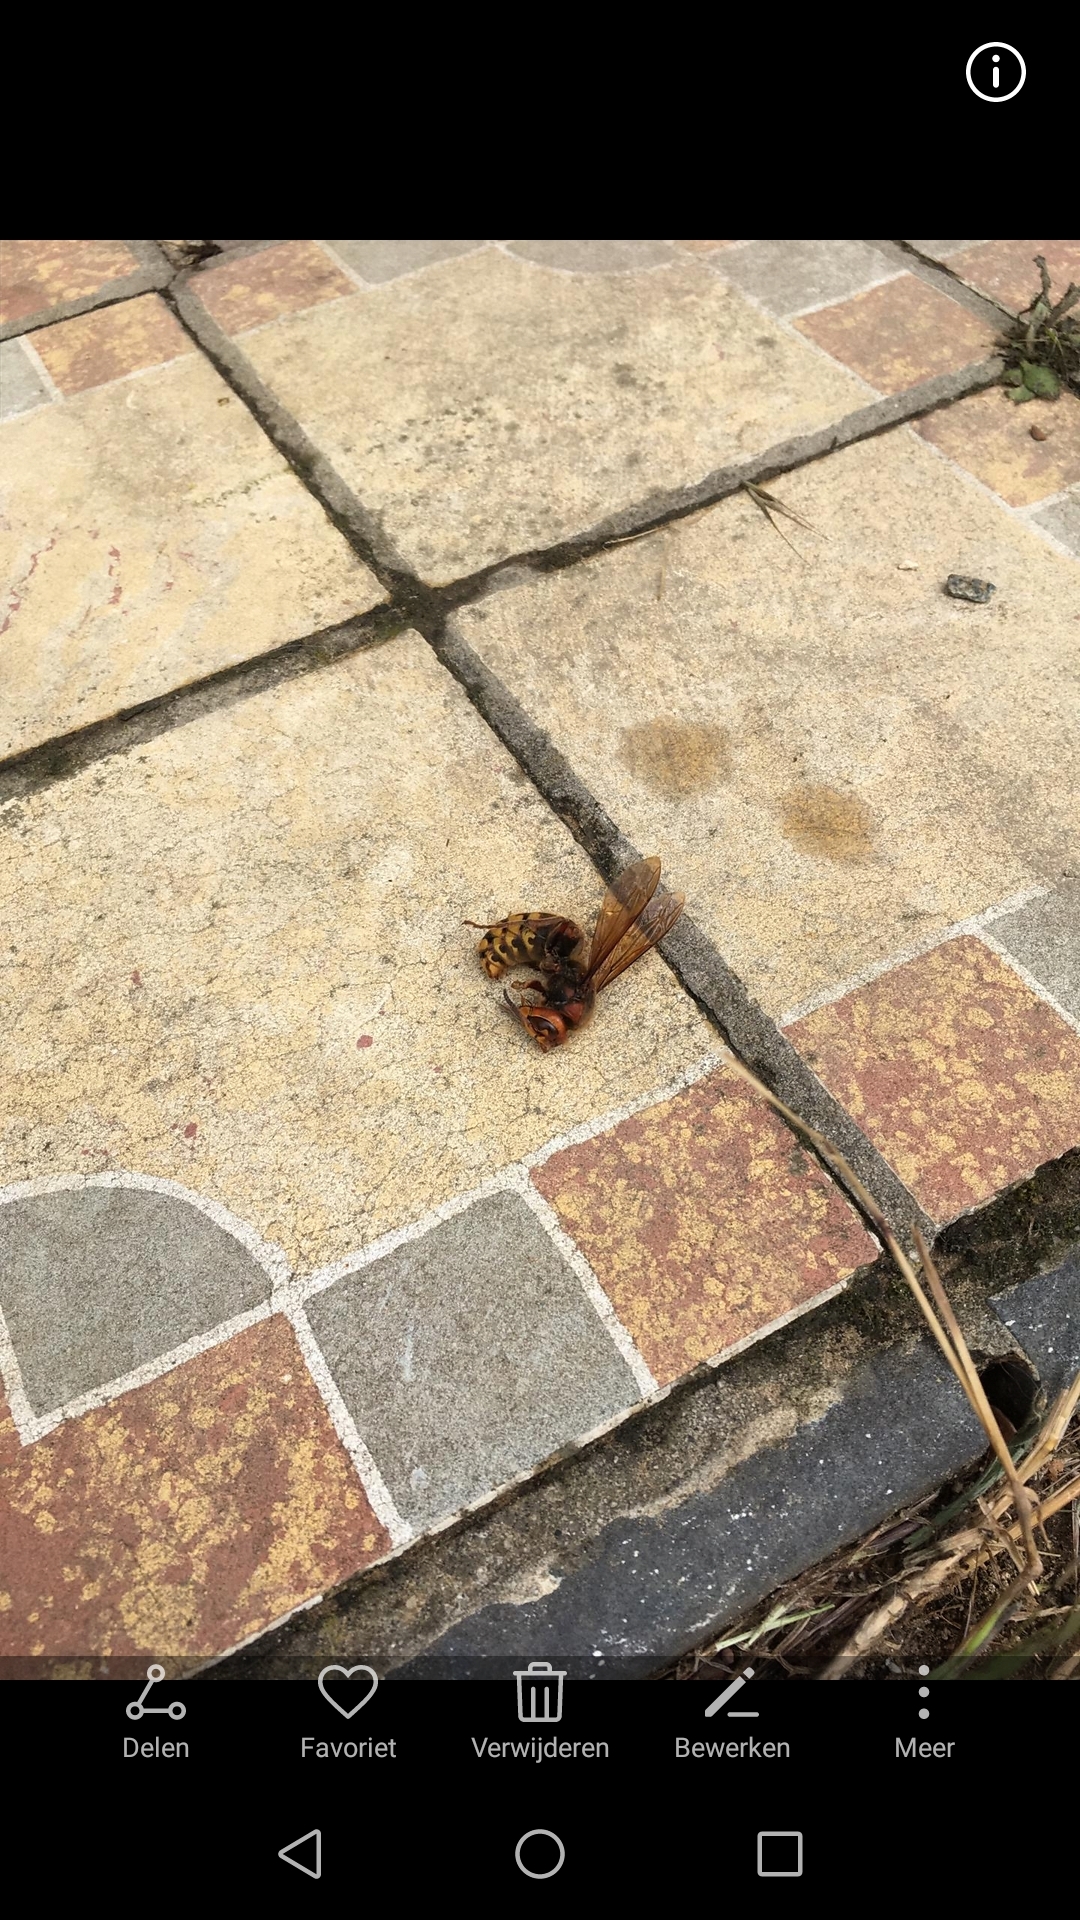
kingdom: Animalia
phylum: Arthropoda
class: Insecta
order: Hymenoptera
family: Vespidae
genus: Vespa
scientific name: Vespa crabro
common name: Hornet
